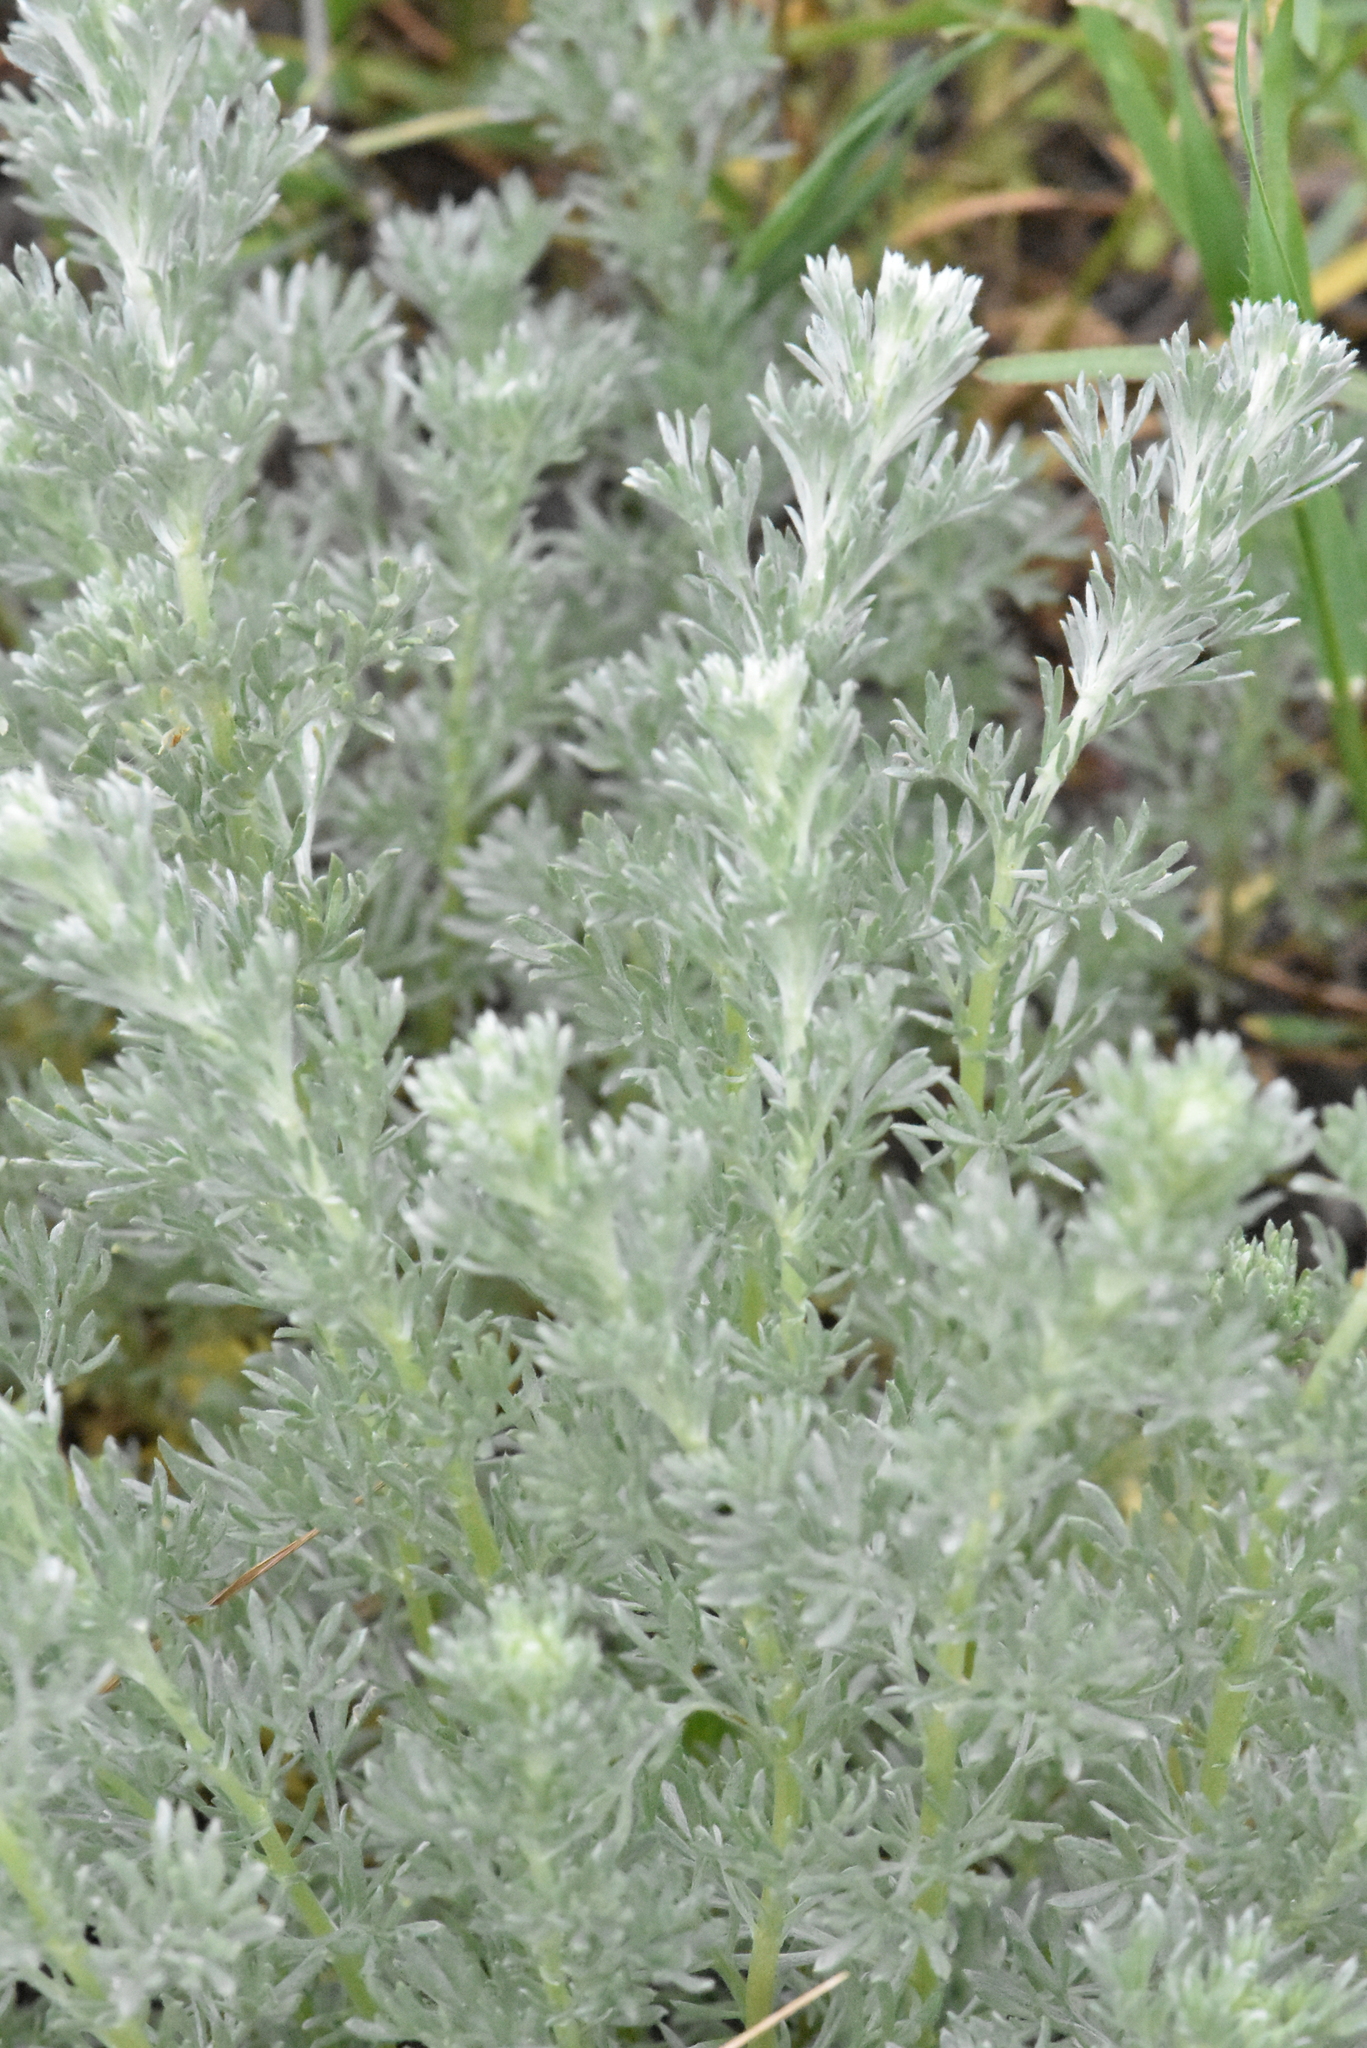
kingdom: Plantae
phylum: Tracheophyta
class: Magnoliopsida
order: Asterales
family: Asteraceae
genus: Artemisia
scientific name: Artemisia austriaca
